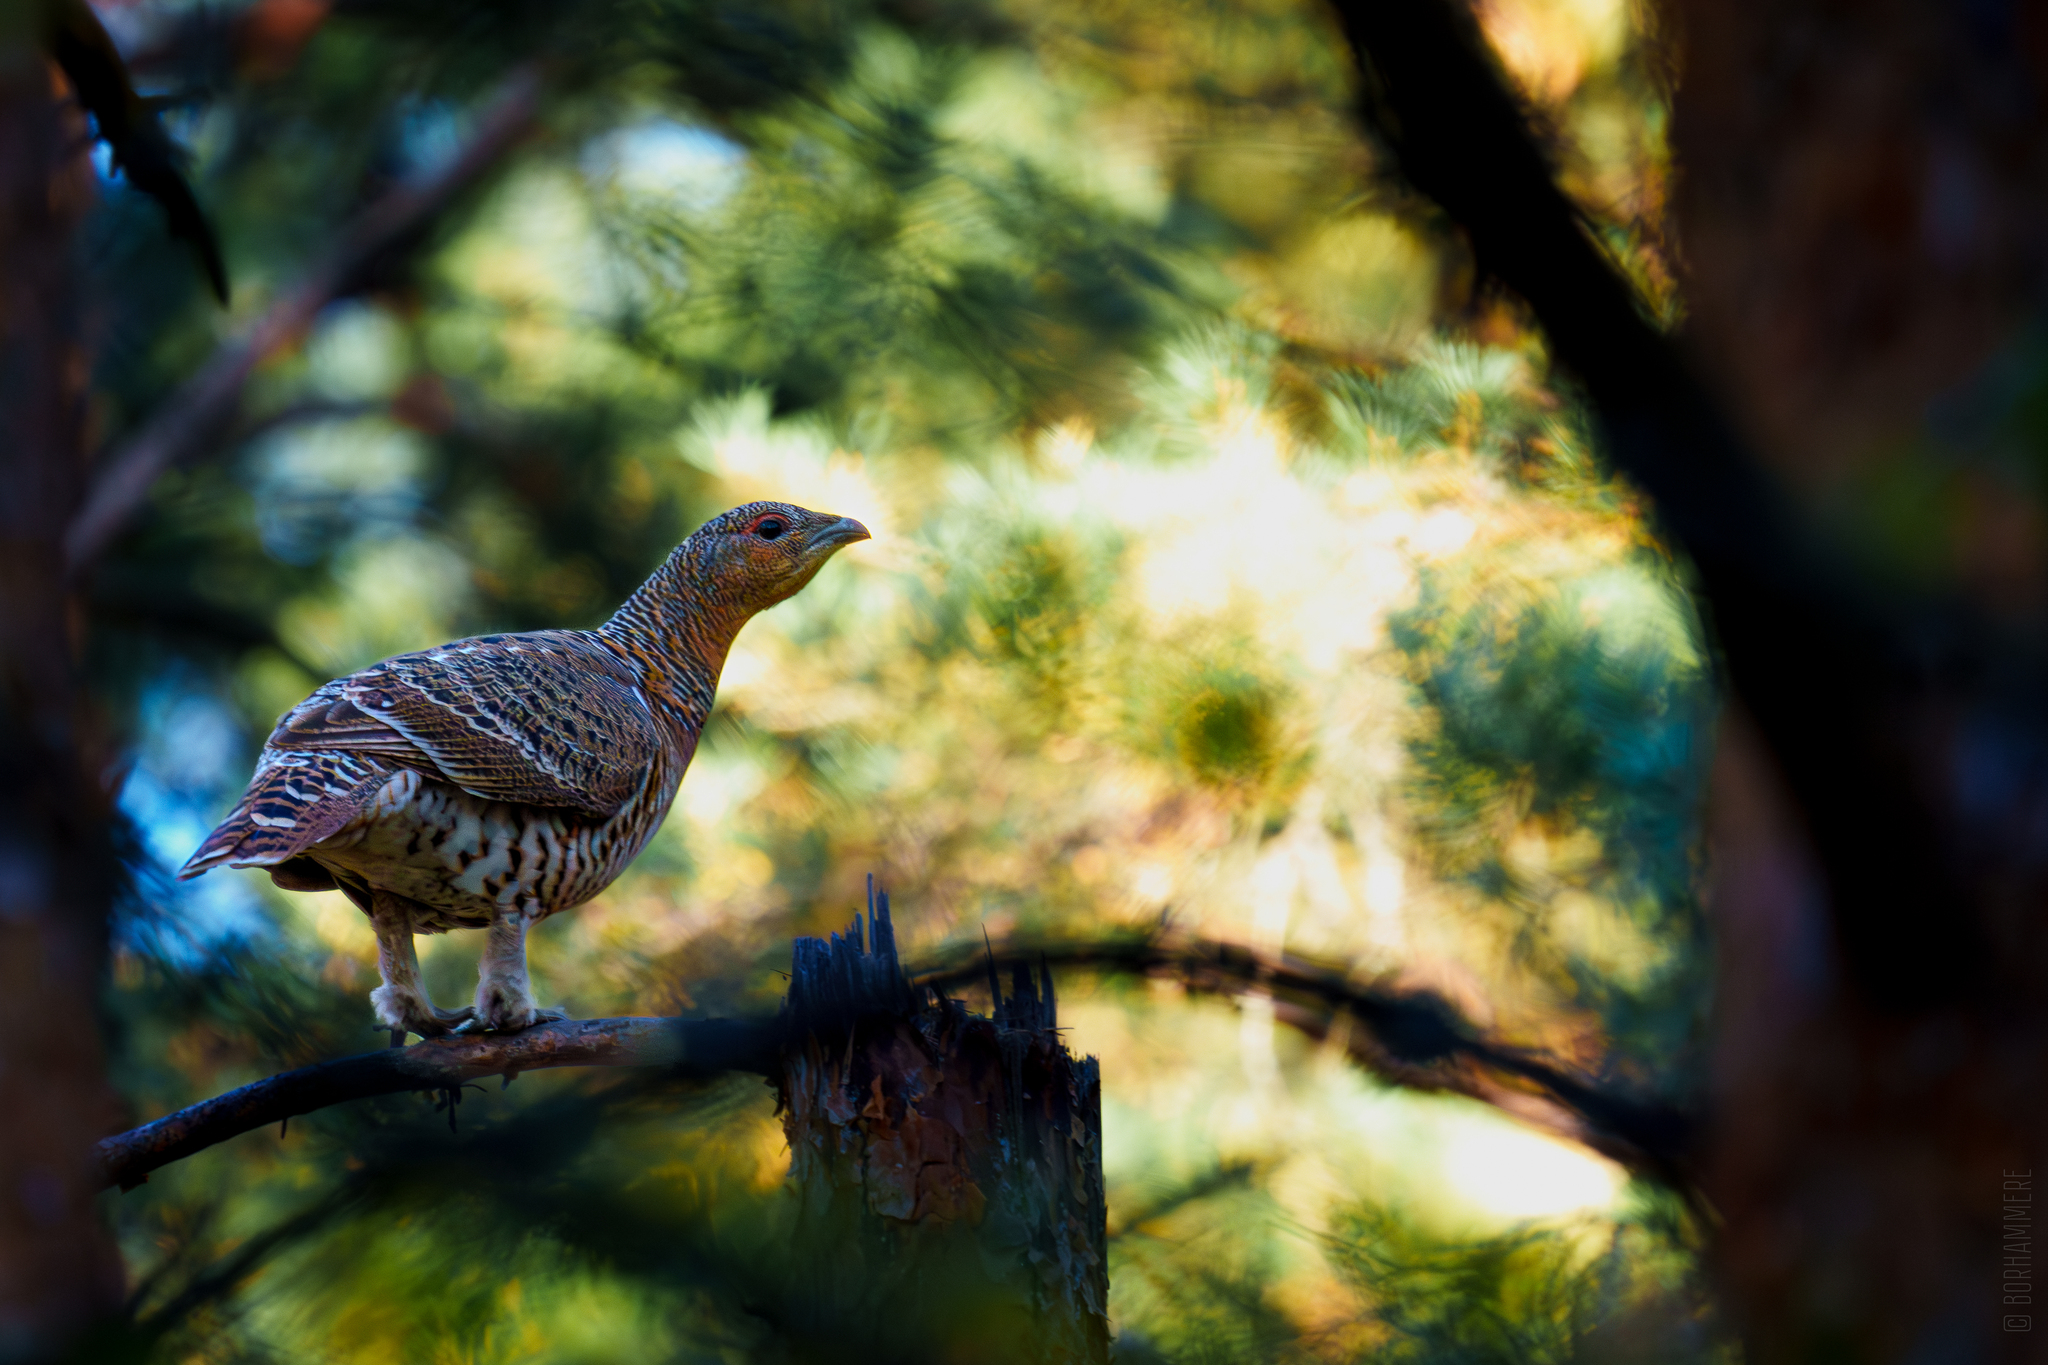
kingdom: Animalia
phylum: Chordata
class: Aves
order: Galliformes
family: Phasianidae
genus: Tetrao
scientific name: Tetrao urogallus
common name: Western capercaillie
